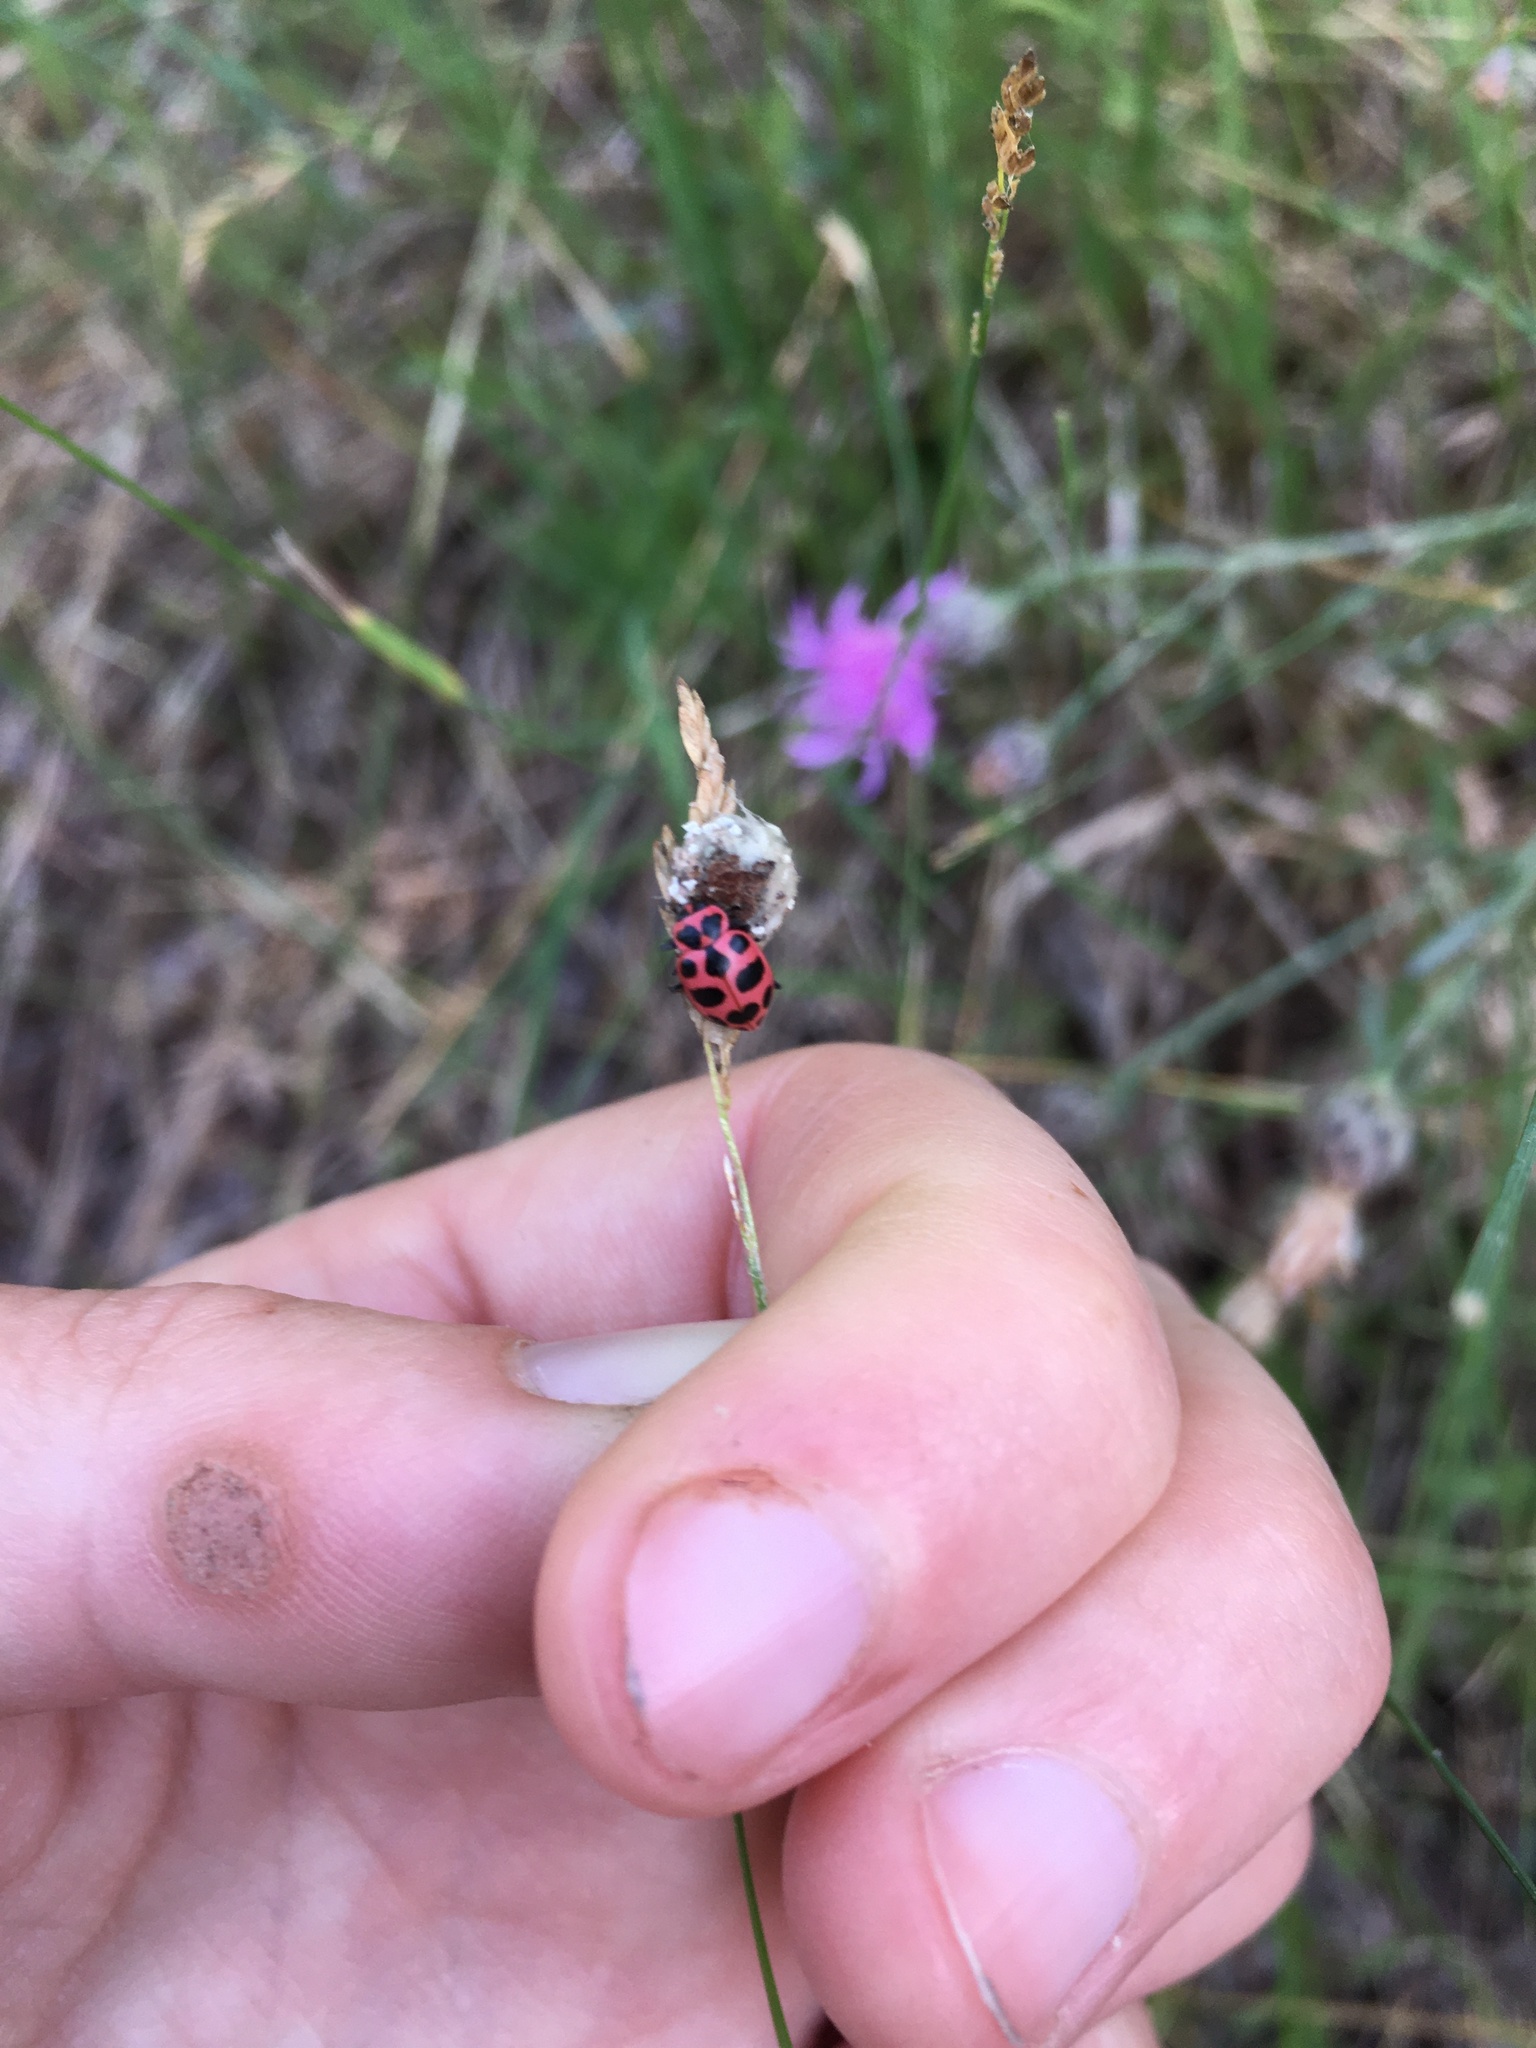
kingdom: Animalia
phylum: Arthropoda
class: Insecta
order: Coleoptera
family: Coccinellidae
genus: Coleomegilla
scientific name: Coleomegilla maculata
